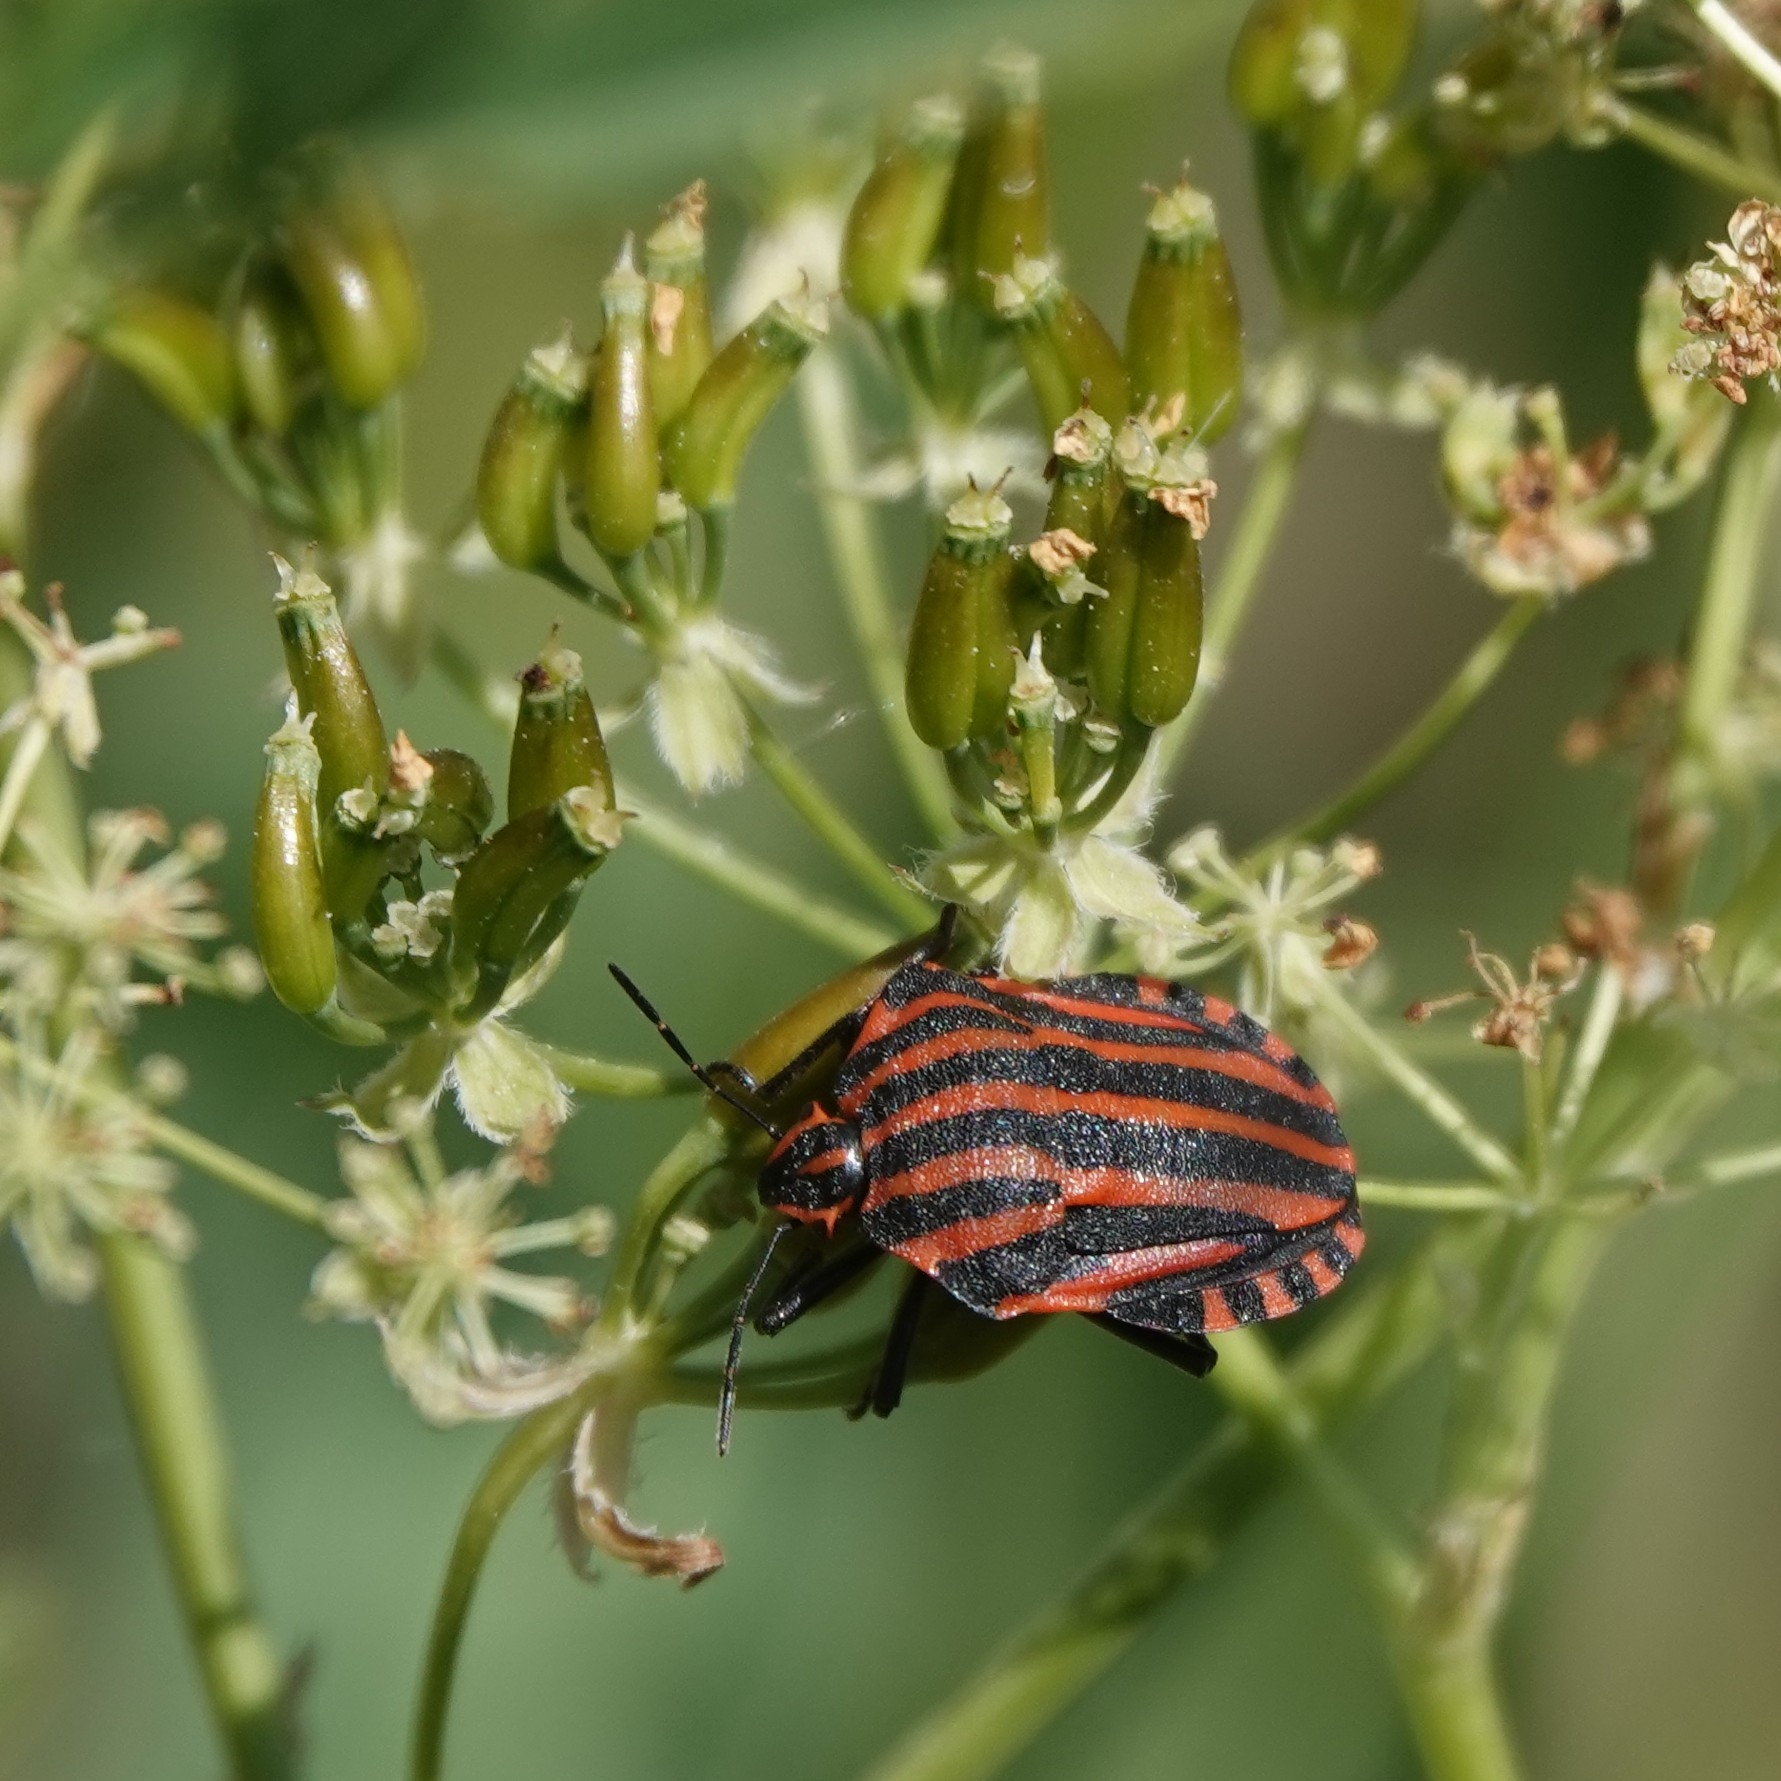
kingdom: Animalia
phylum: Arthropoda
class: Insecta
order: Hemiptera
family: Pentatomidae
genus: Graphosoma
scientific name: Graphosoma italicum
